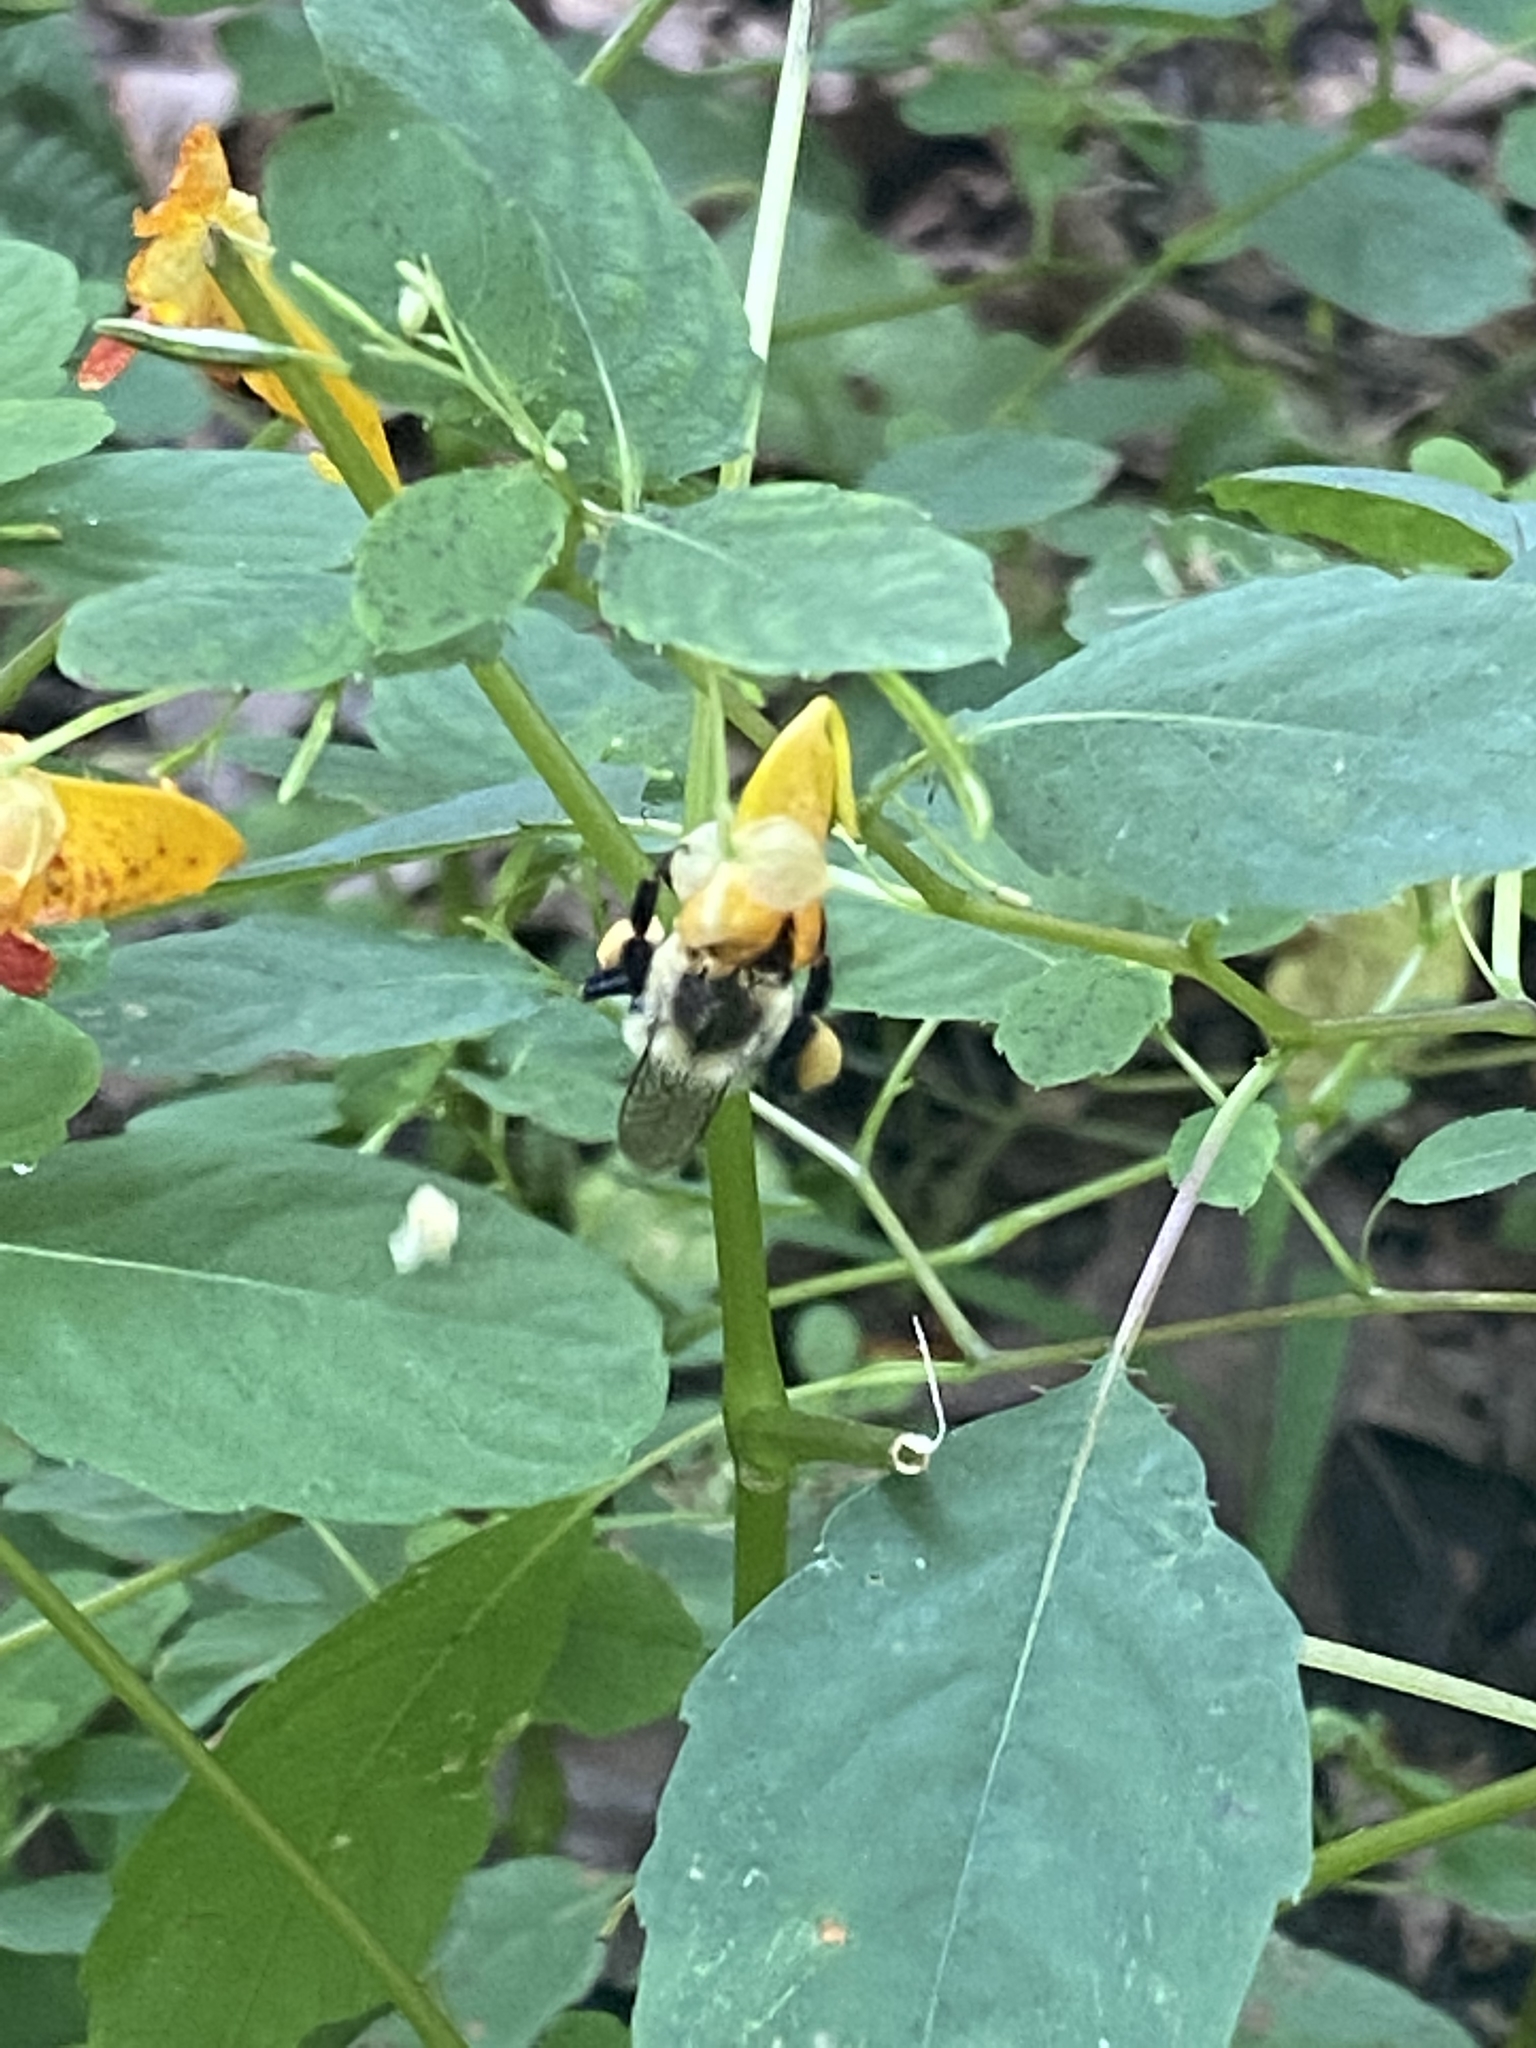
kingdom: Animalia
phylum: Arthropoda
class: Insecta
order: Hymenoptera
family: Apidae
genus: Bombus
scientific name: Bombus impatiens
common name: Common eastern bumble bee
